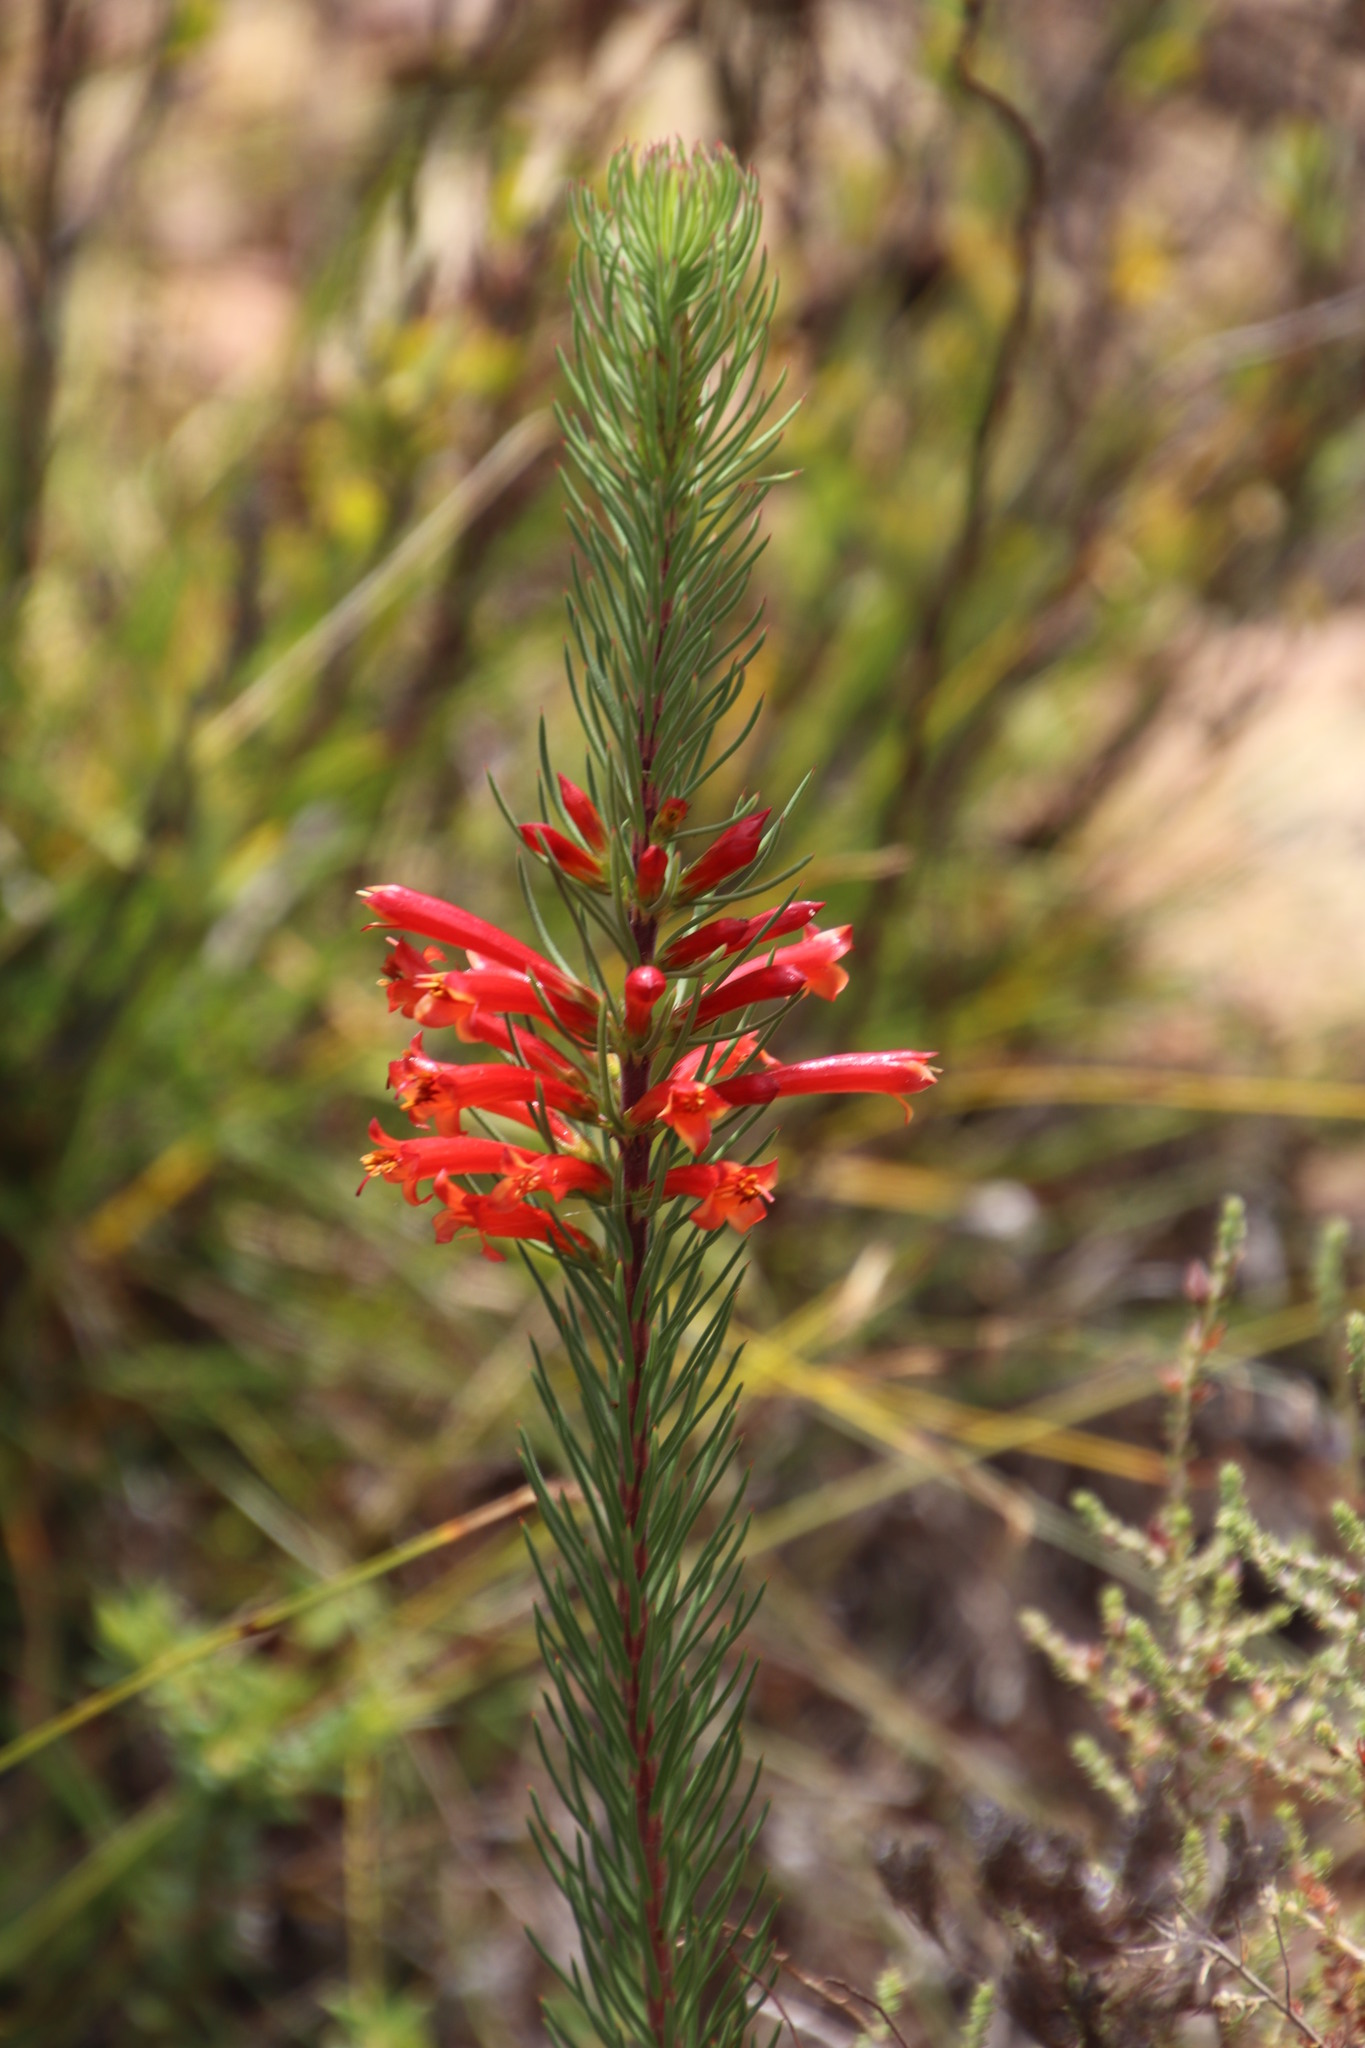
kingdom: Plantae
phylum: Tracheophyta
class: Magnoliopsida
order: Ericales
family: Ericaceae
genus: Erica
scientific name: Erica grandiflora
